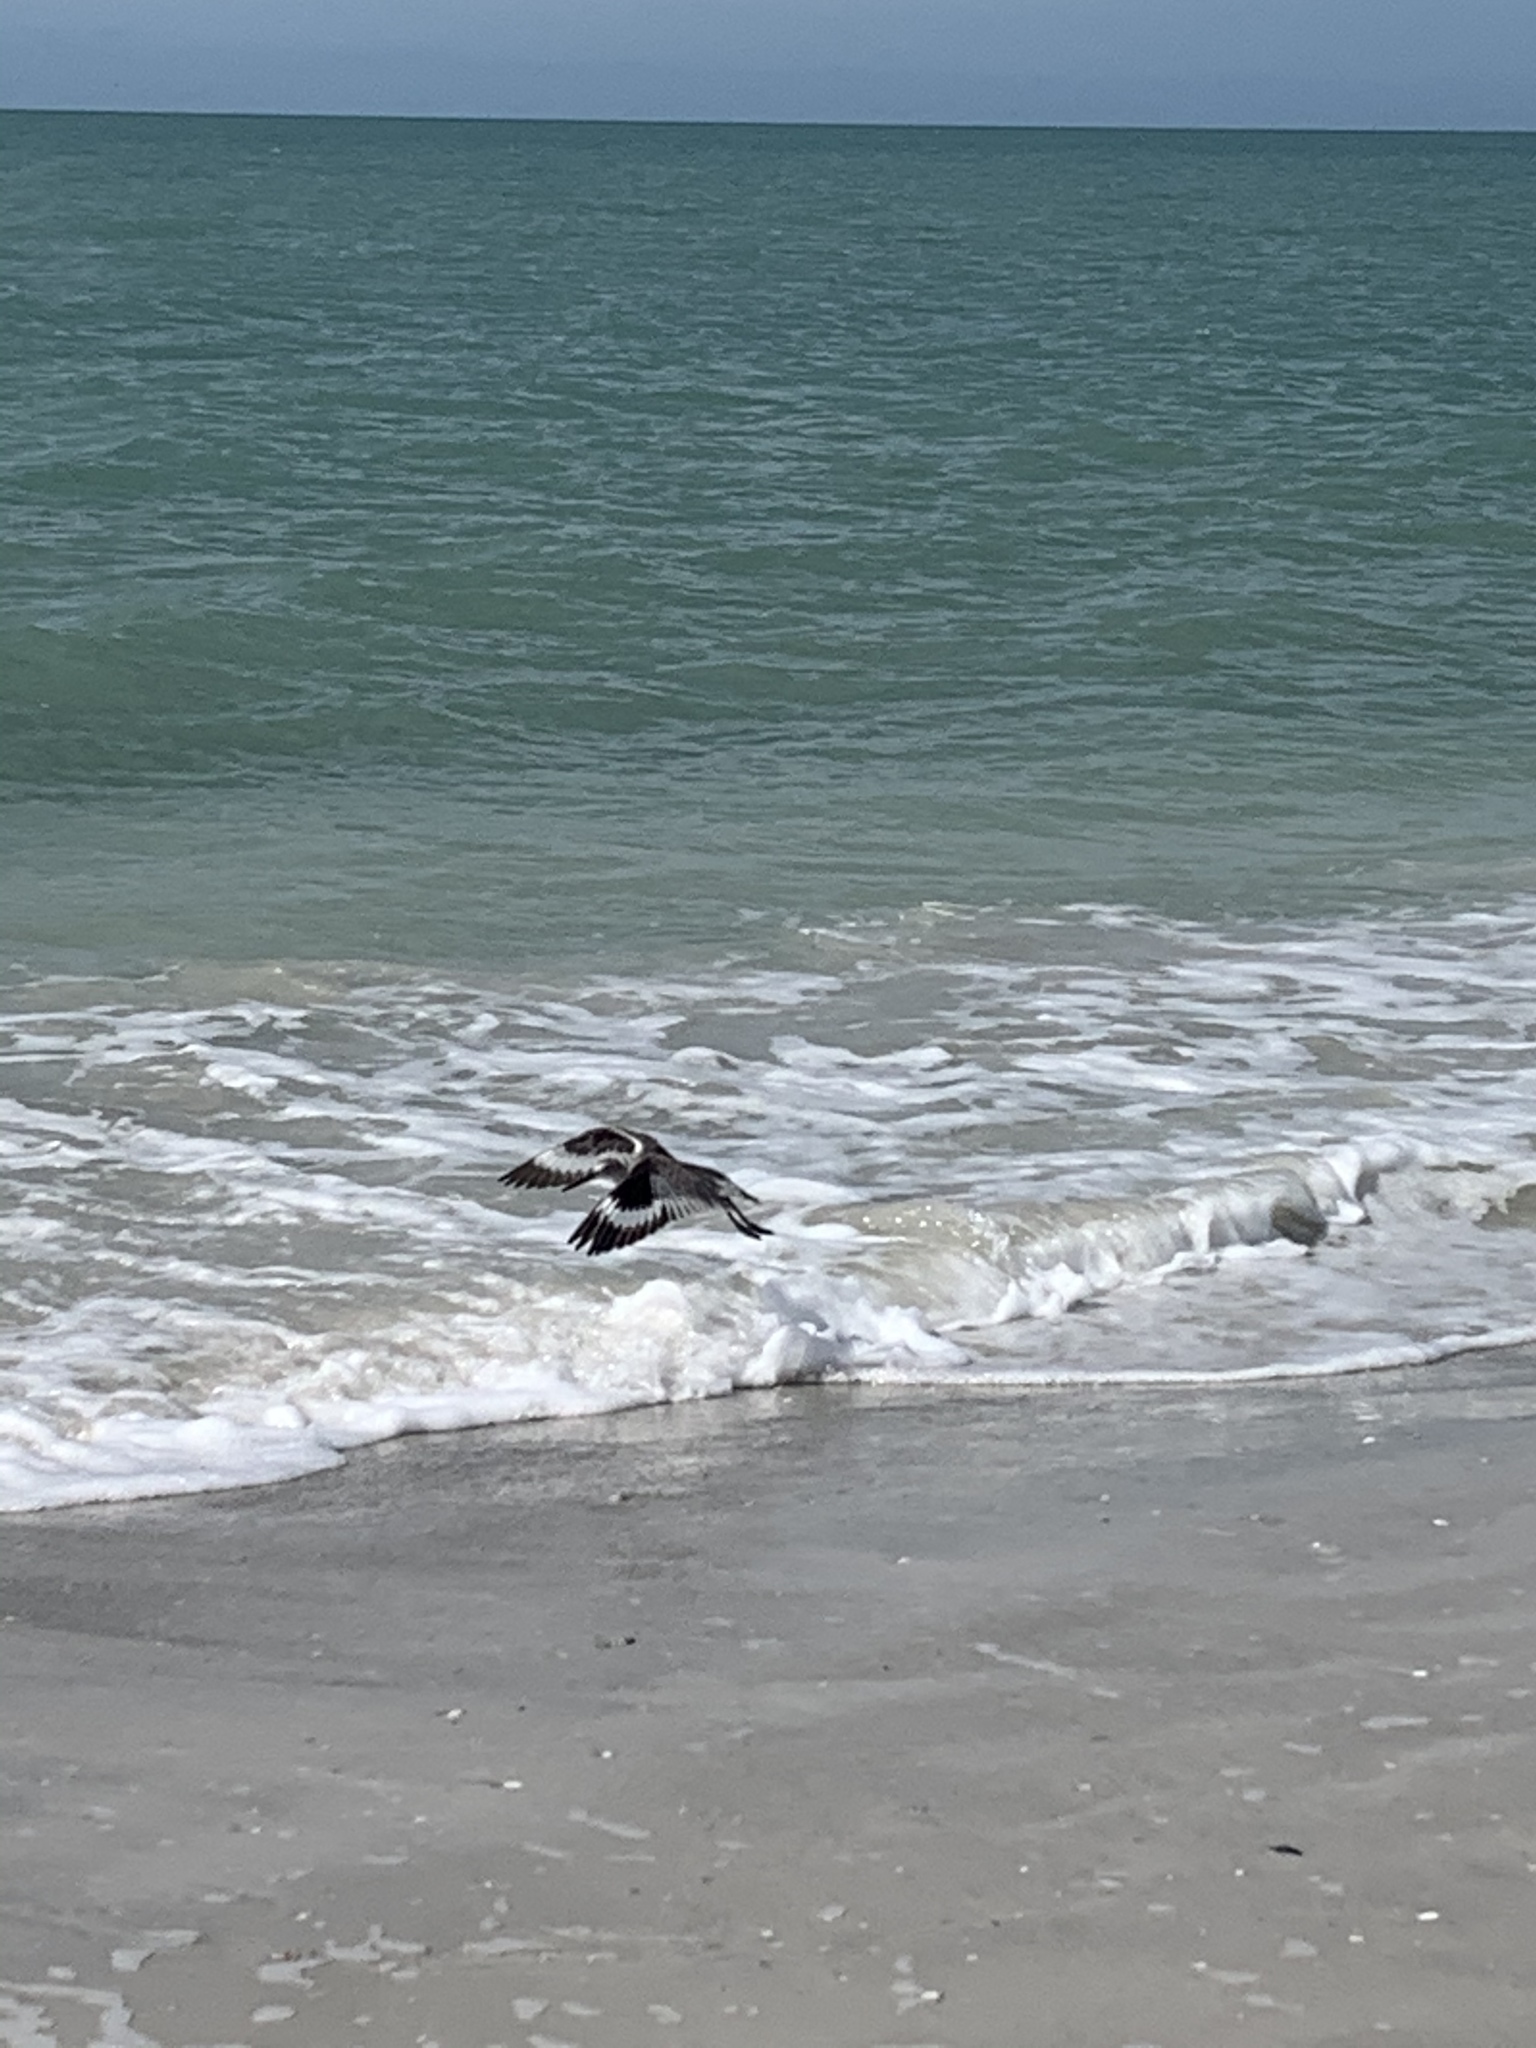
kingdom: Animalia
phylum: Chordata
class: Aves
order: Charadriiformes
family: Scolopacidae
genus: Tringa
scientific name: Tringa semipalmata
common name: Willet
